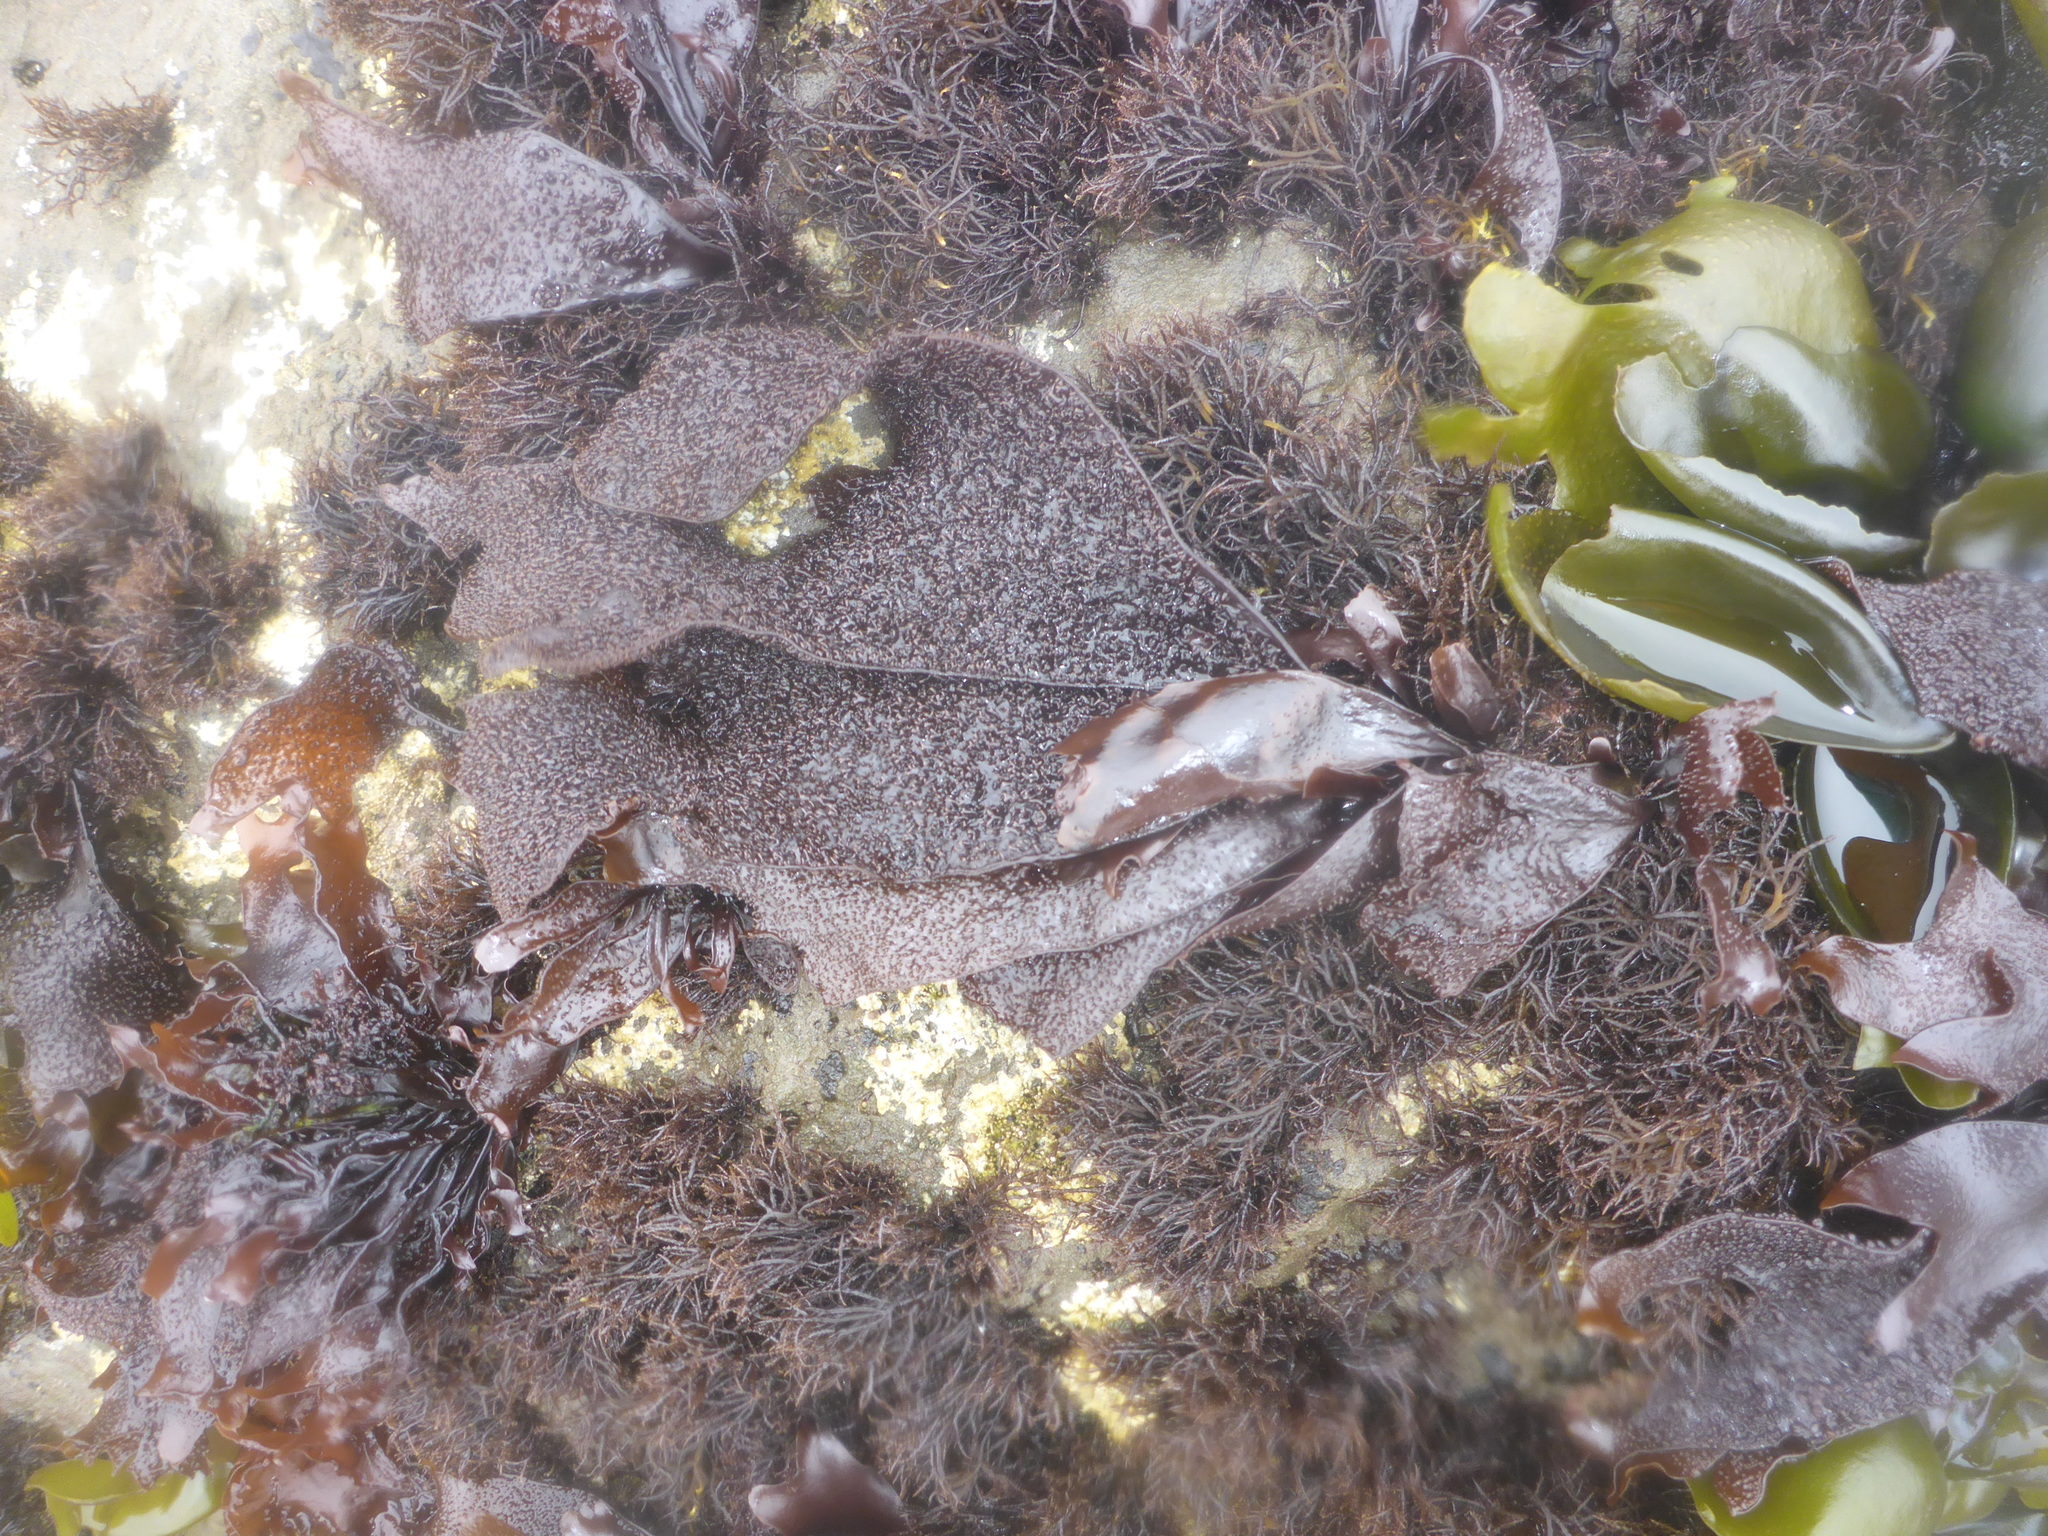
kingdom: Plantae
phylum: Rhodophyta
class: Florideophyceae
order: Gigartinales
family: Phyllophoraceae
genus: Mastocarpus
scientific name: Mastocarpus papillatus
